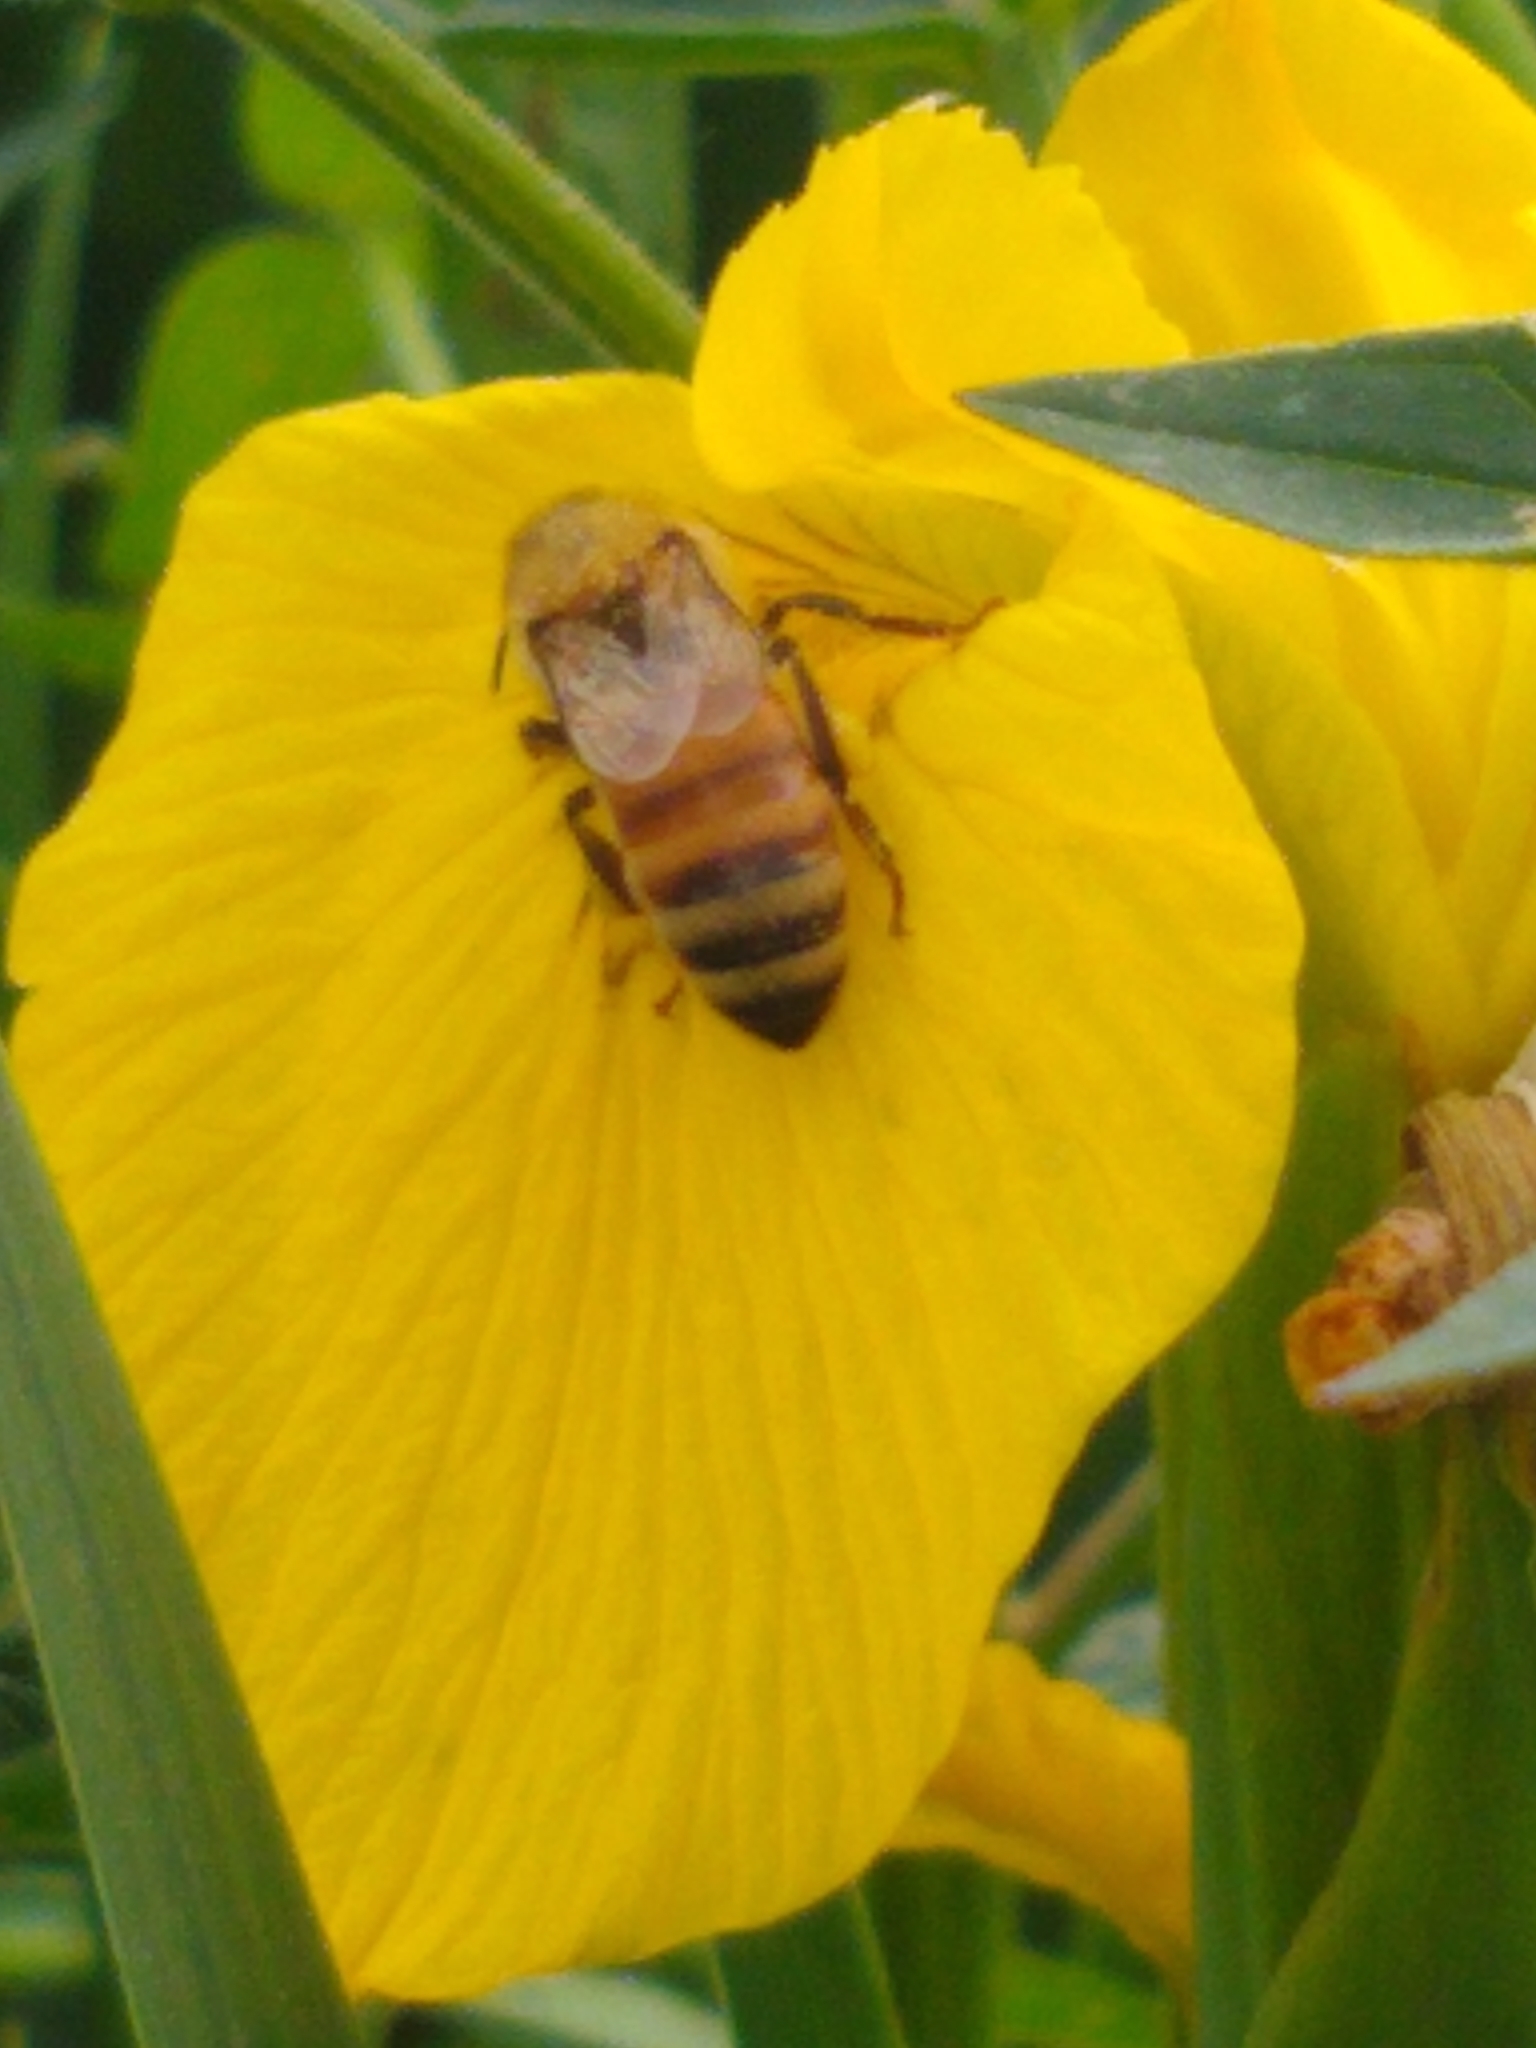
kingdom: Animalia
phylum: Arthropoda
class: Insecta
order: Hymenoptera
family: Apidae
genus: Apis
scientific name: Apis mellifera
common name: Honey bee
